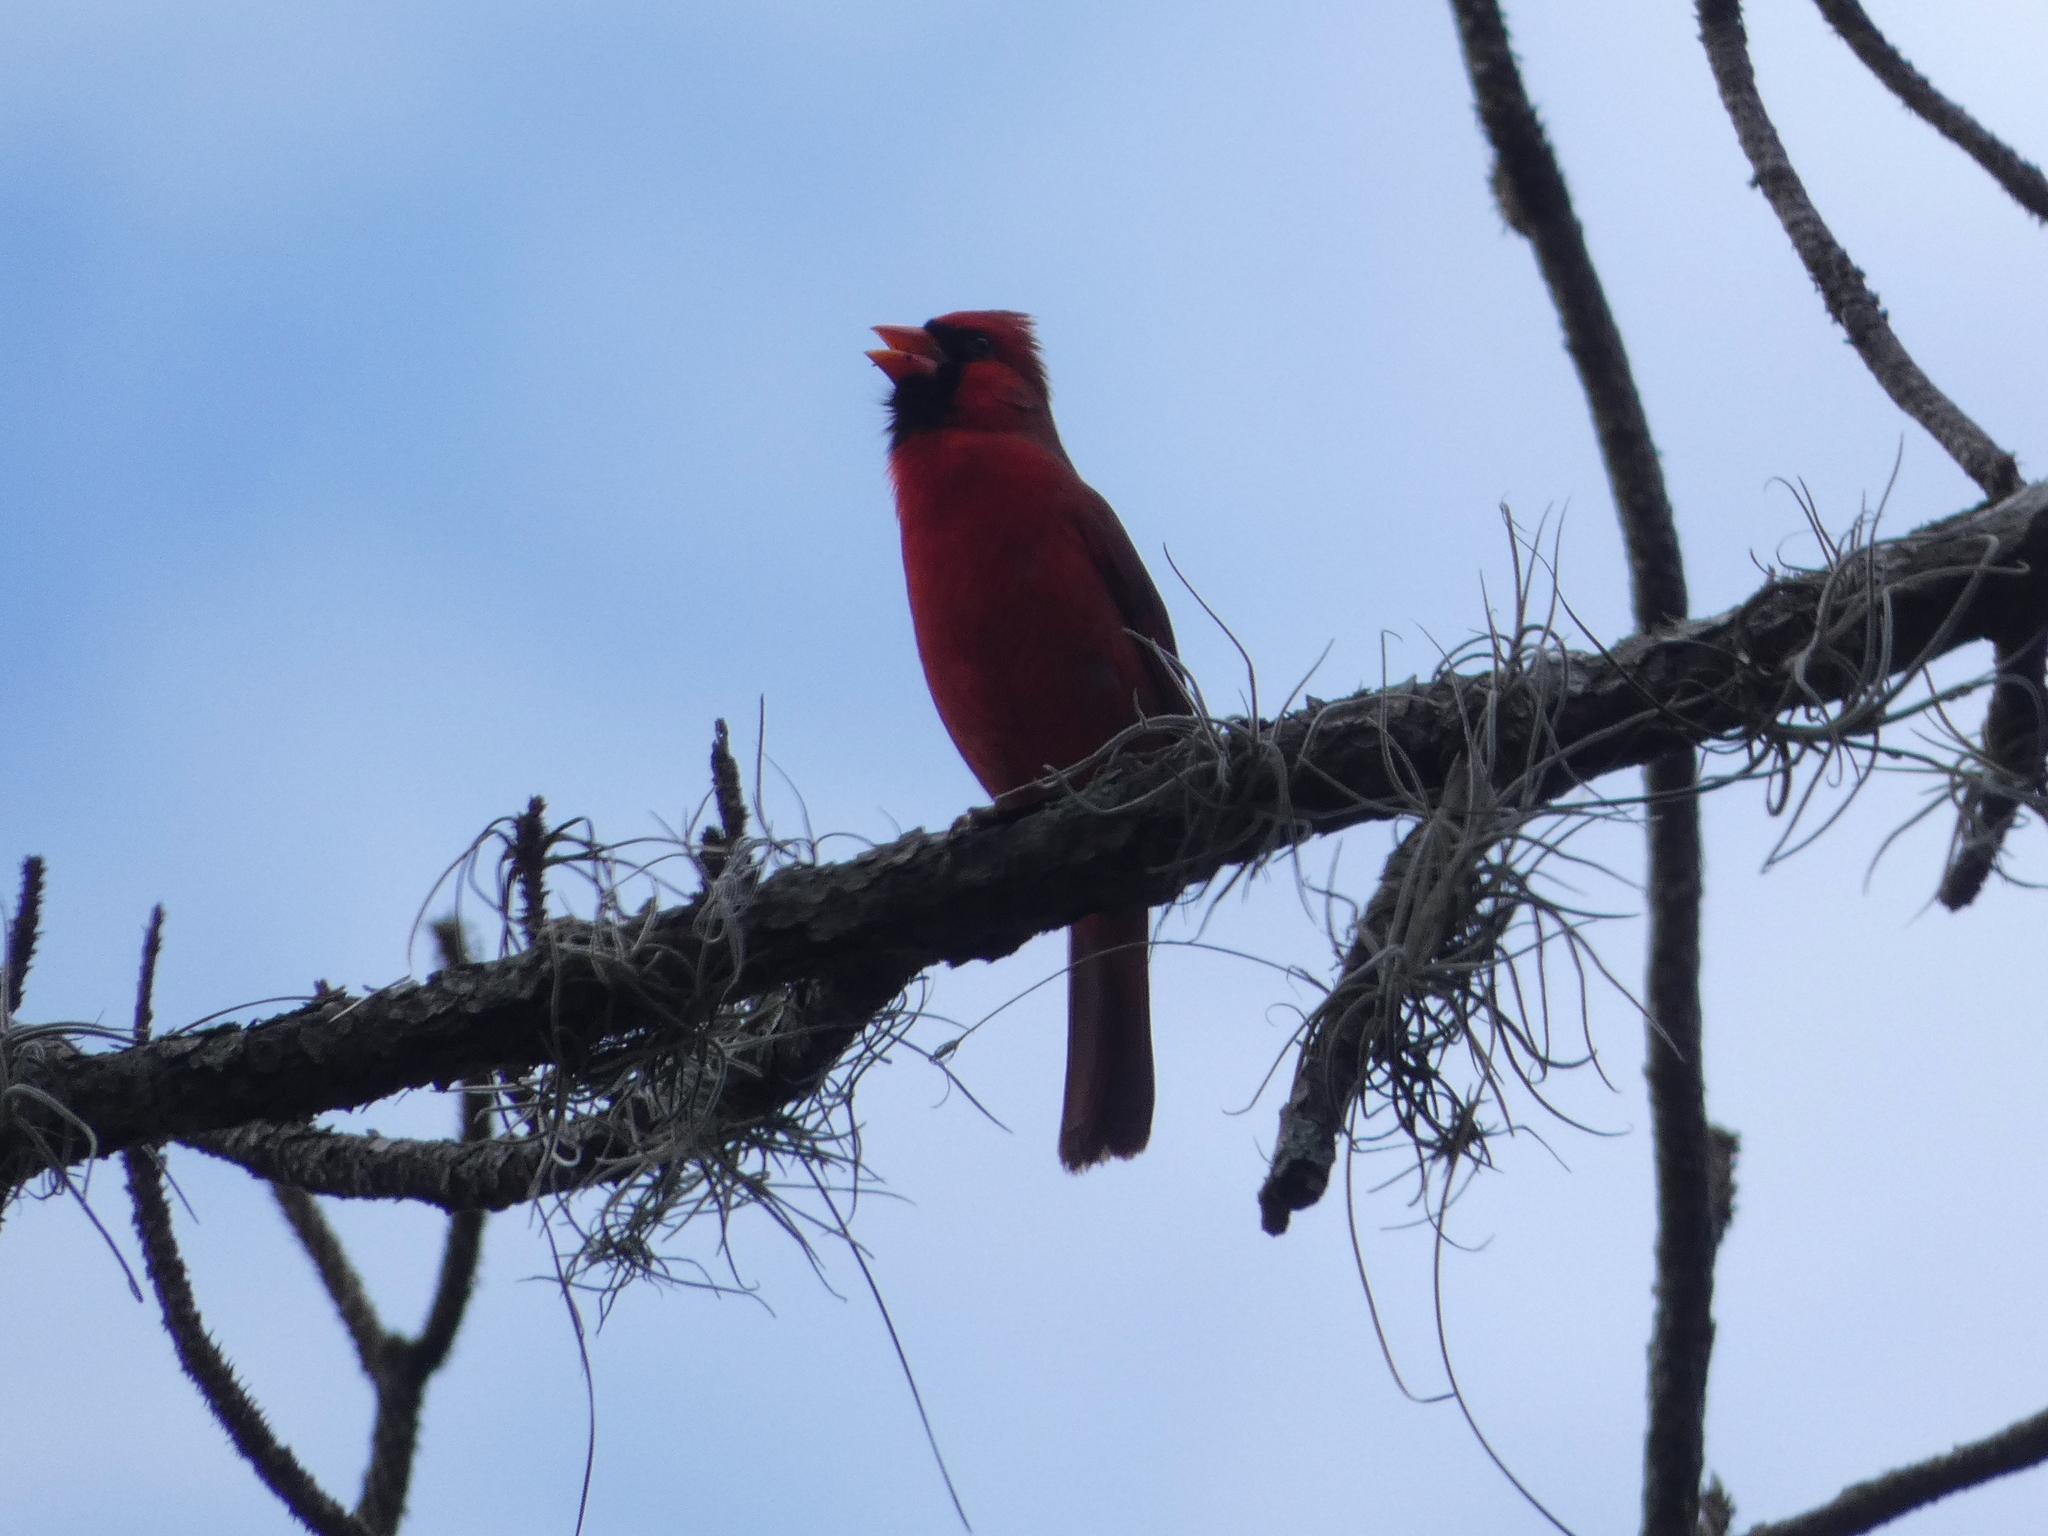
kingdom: Animalia
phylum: Chordata
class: Aves
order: Passeriformes
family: Cardinalidae
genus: Cardinalis
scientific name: Cardinalis cardinalis
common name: Northern cardinal
